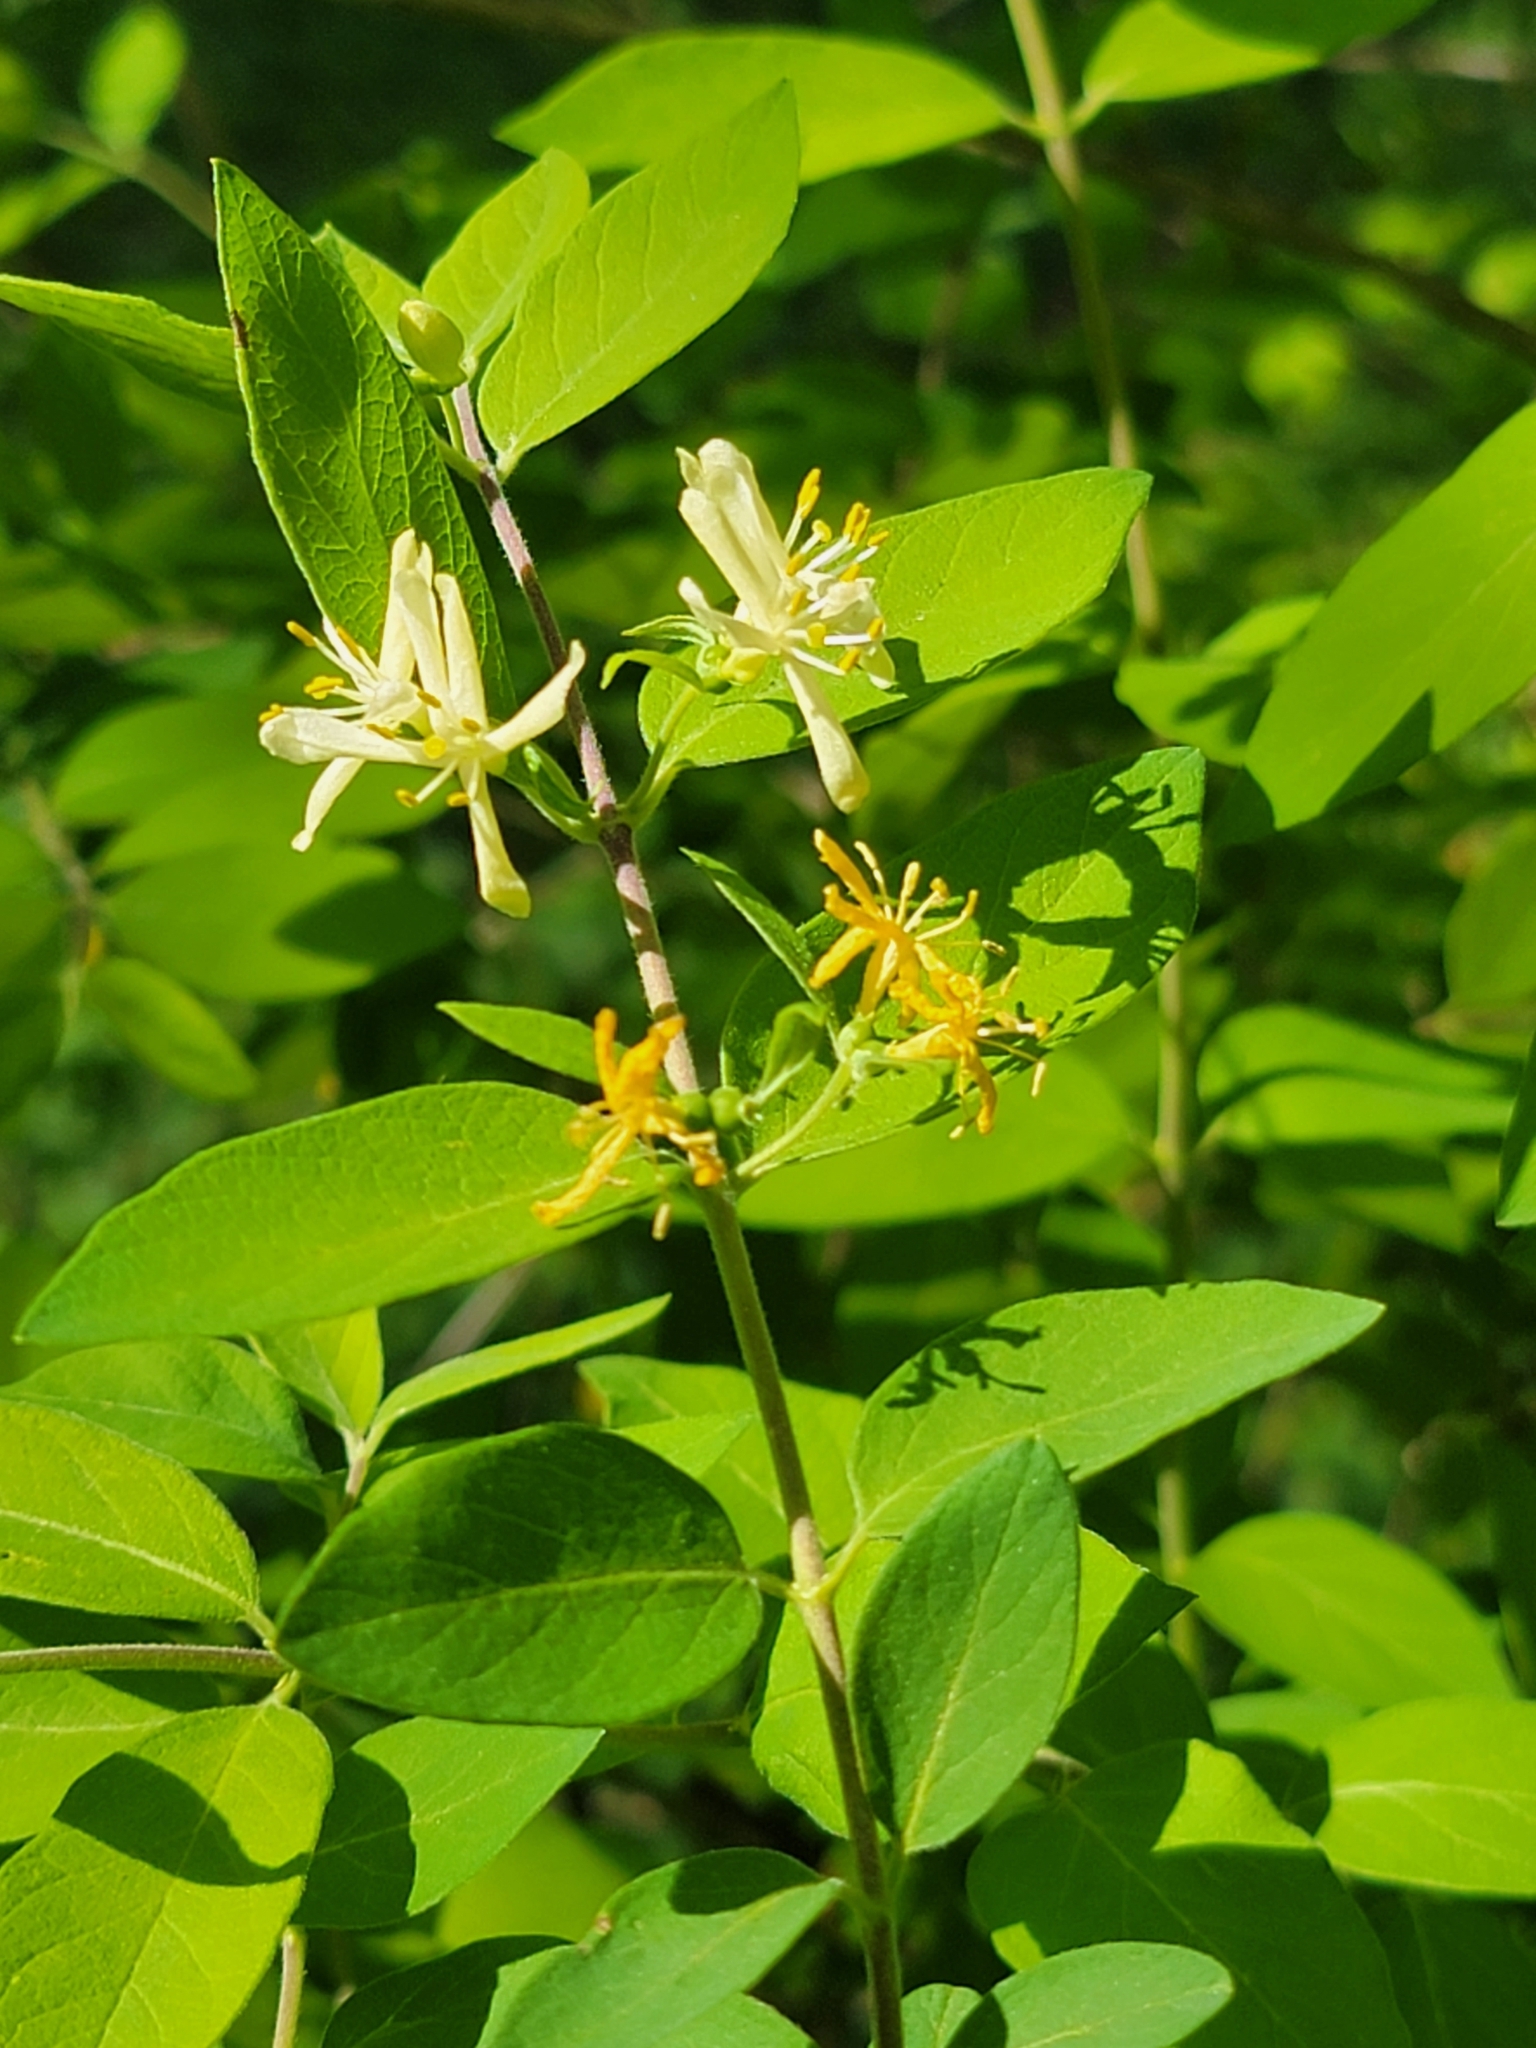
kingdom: Plantae
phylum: Tracheophyta
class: Magnoliopsida
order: Dipsacales
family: Caprifoliaceae
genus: Lonicera
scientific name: Lonicera morrowii
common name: Morrow's honeysuckle
